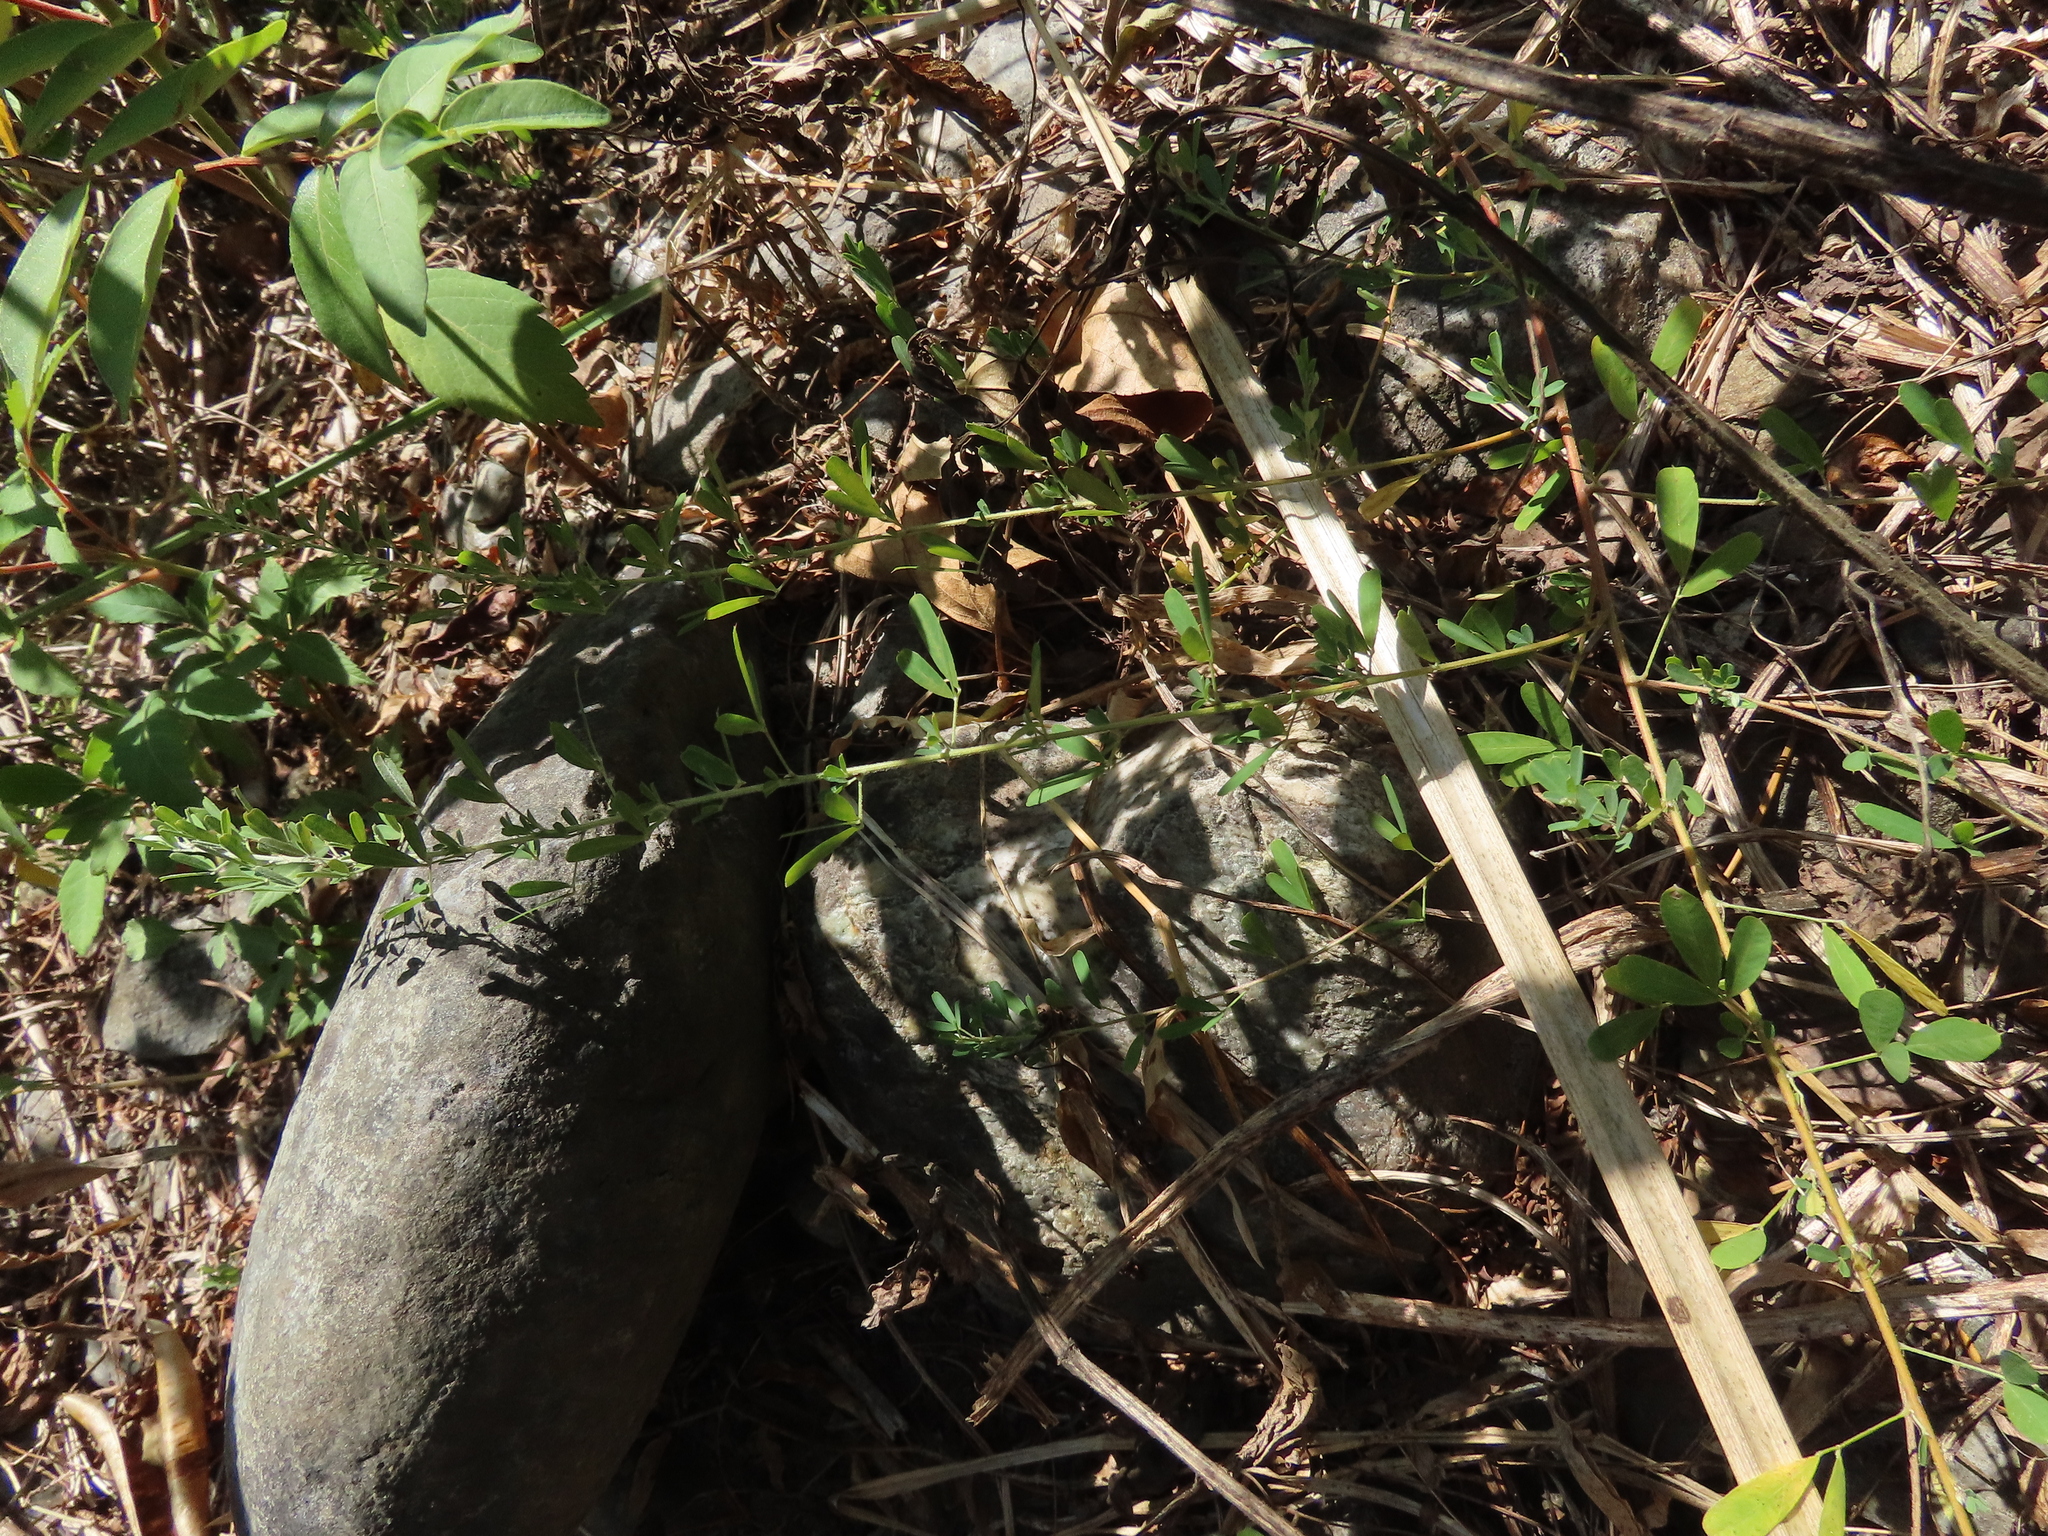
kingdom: Plantae
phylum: Tracheophyta
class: Magnoliopsida
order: Fabales
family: Fabaceae
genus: Lespedeza
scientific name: Lespedeza cuneata
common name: Chinese bush-clover
